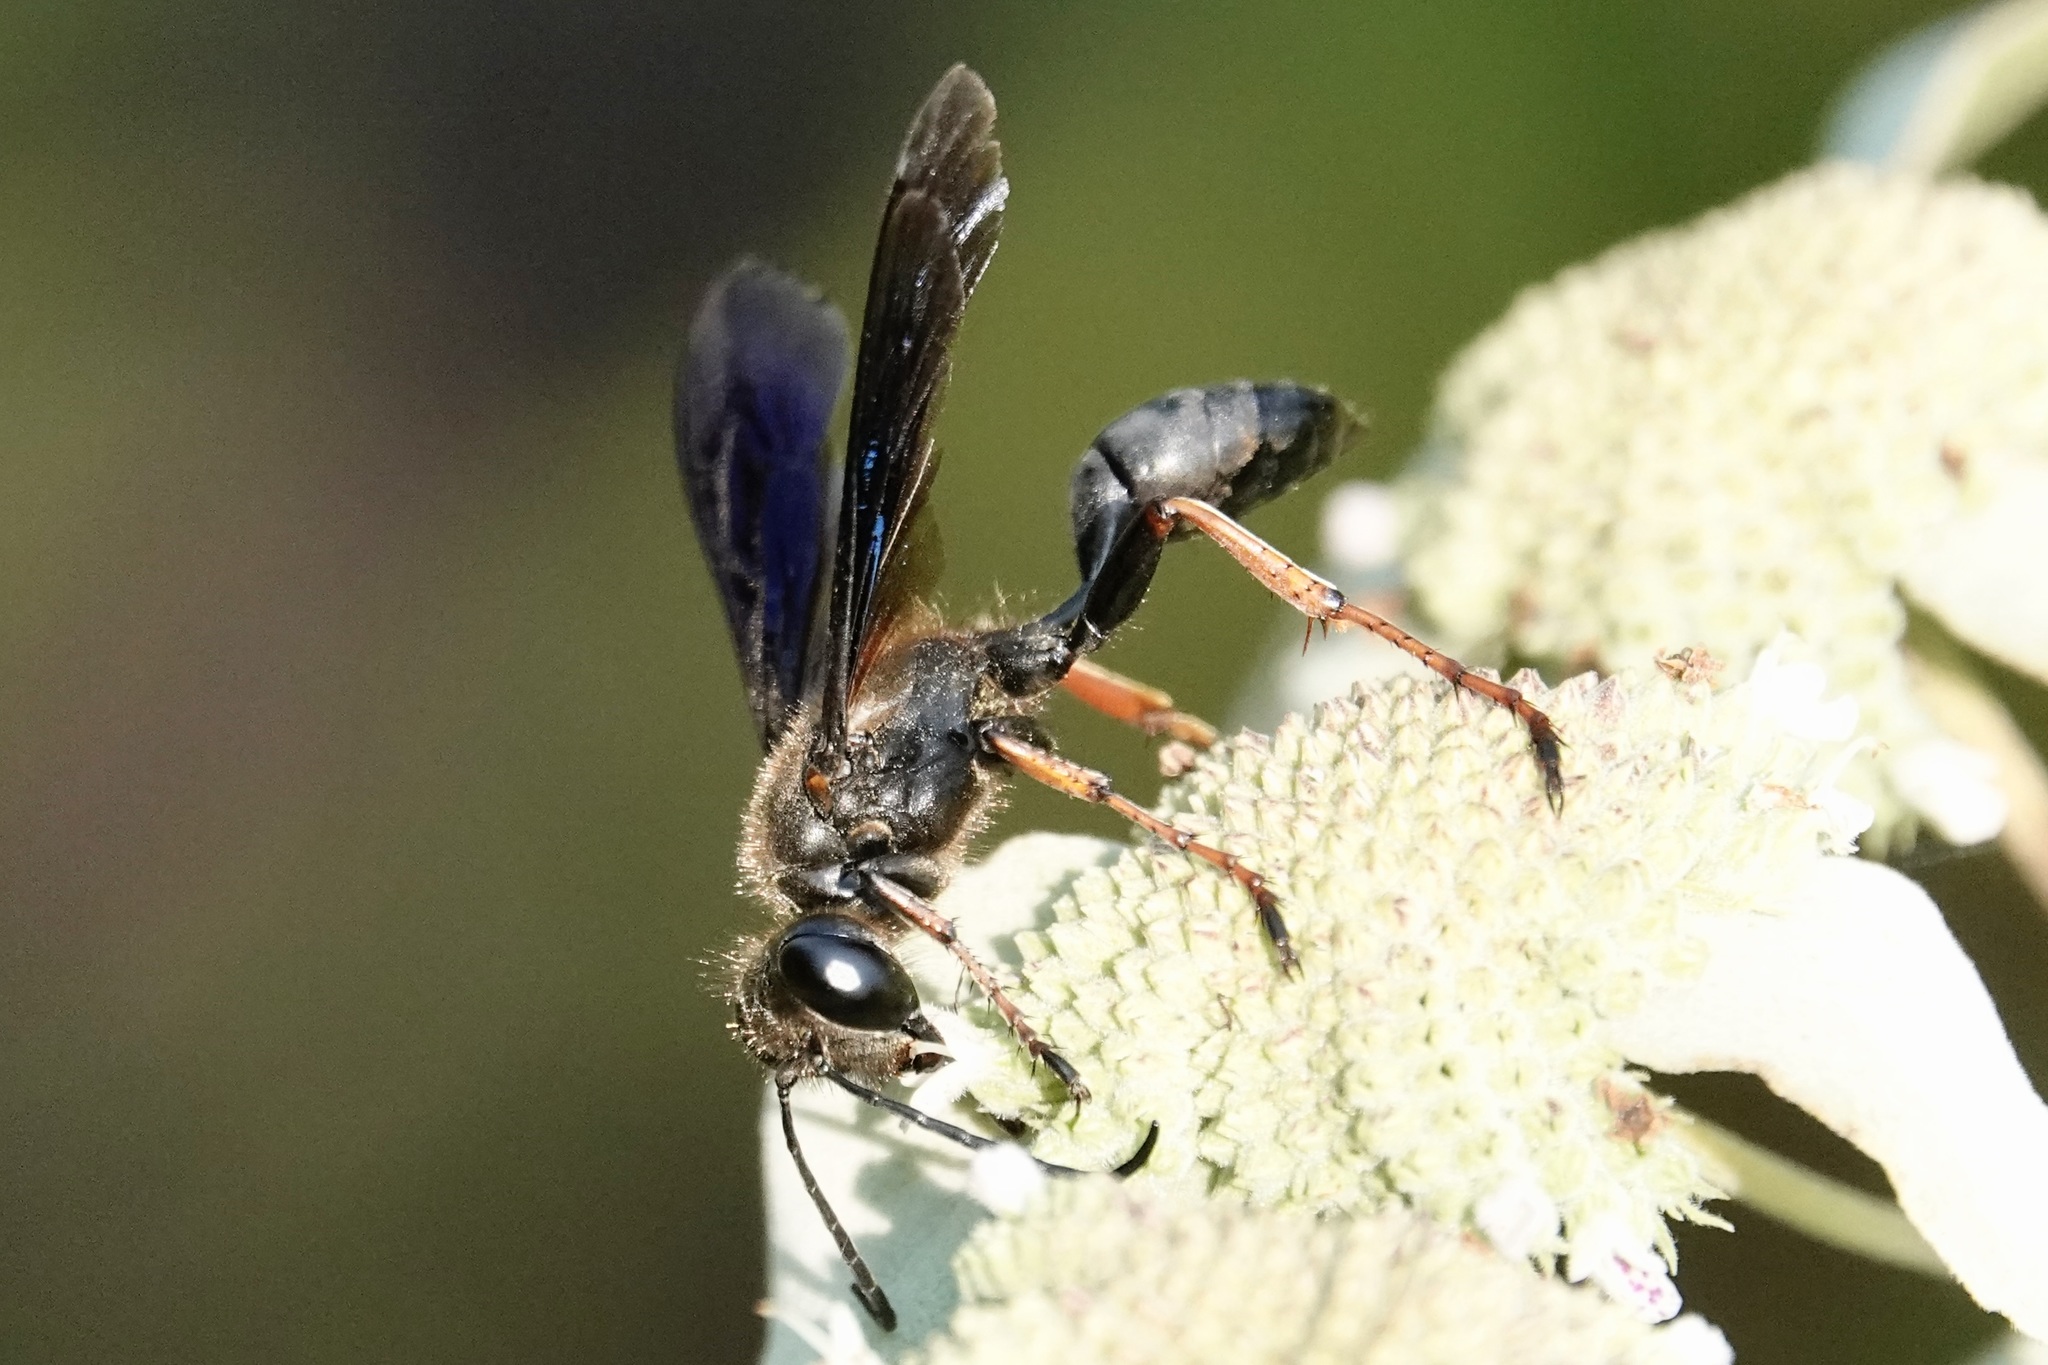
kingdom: Animalia
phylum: Arthropoda
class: Insecta
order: Hymenoptera
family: Sphecidae
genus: Isodontia
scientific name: Isodontia auripes
